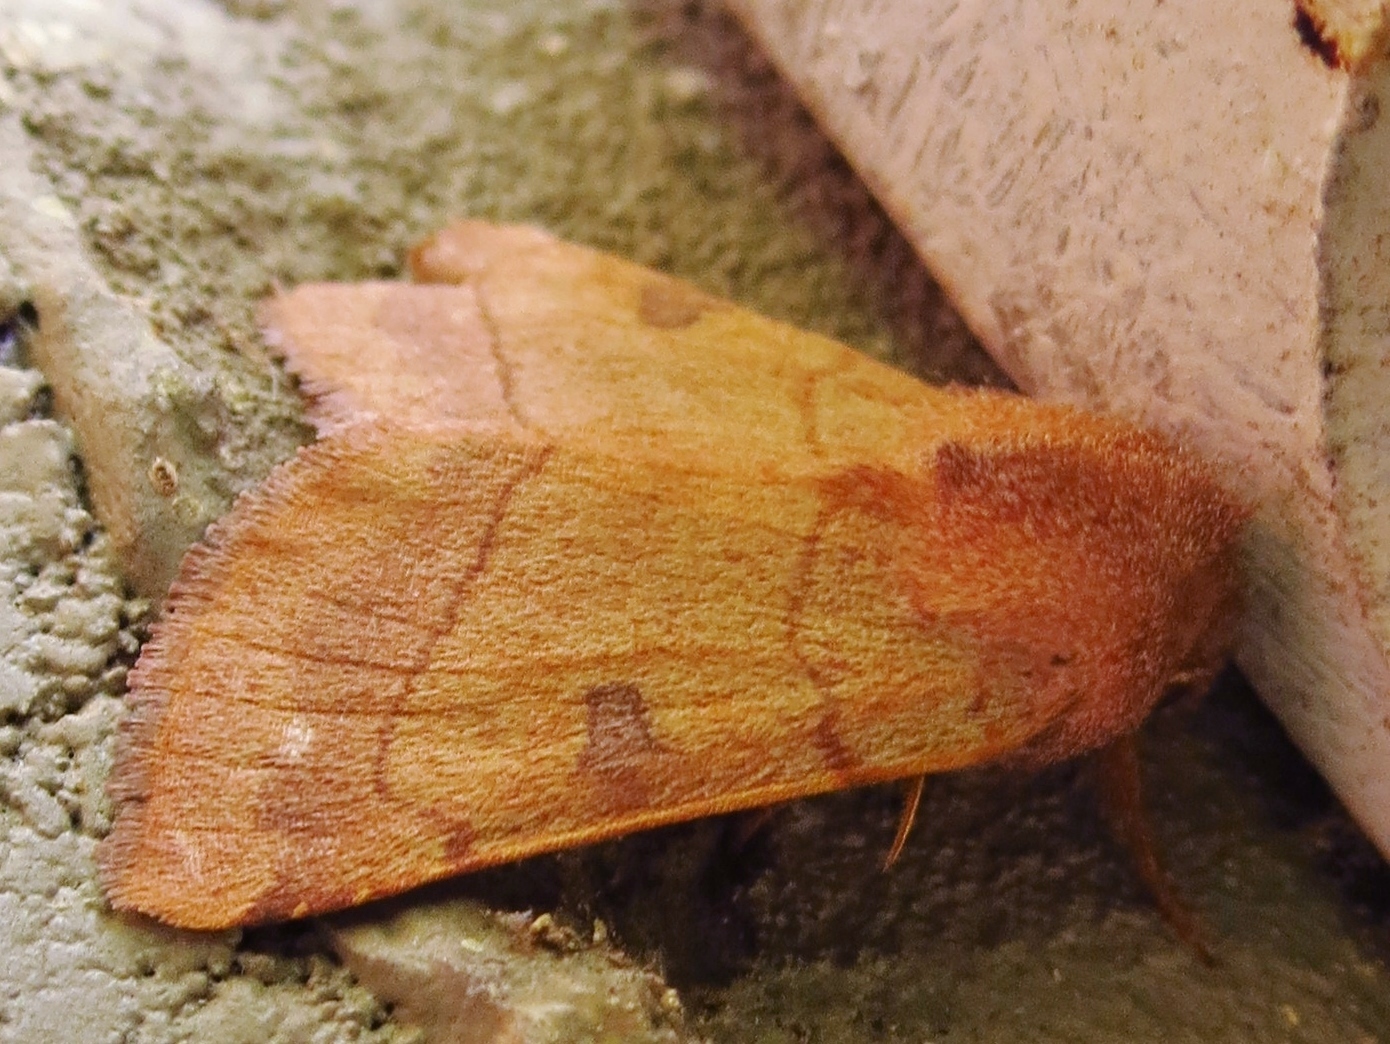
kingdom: Animalia
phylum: Arthropoda
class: Insecta
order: Lepidoptera
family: Noctuidae
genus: Choephora
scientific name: Choephora fungorum
